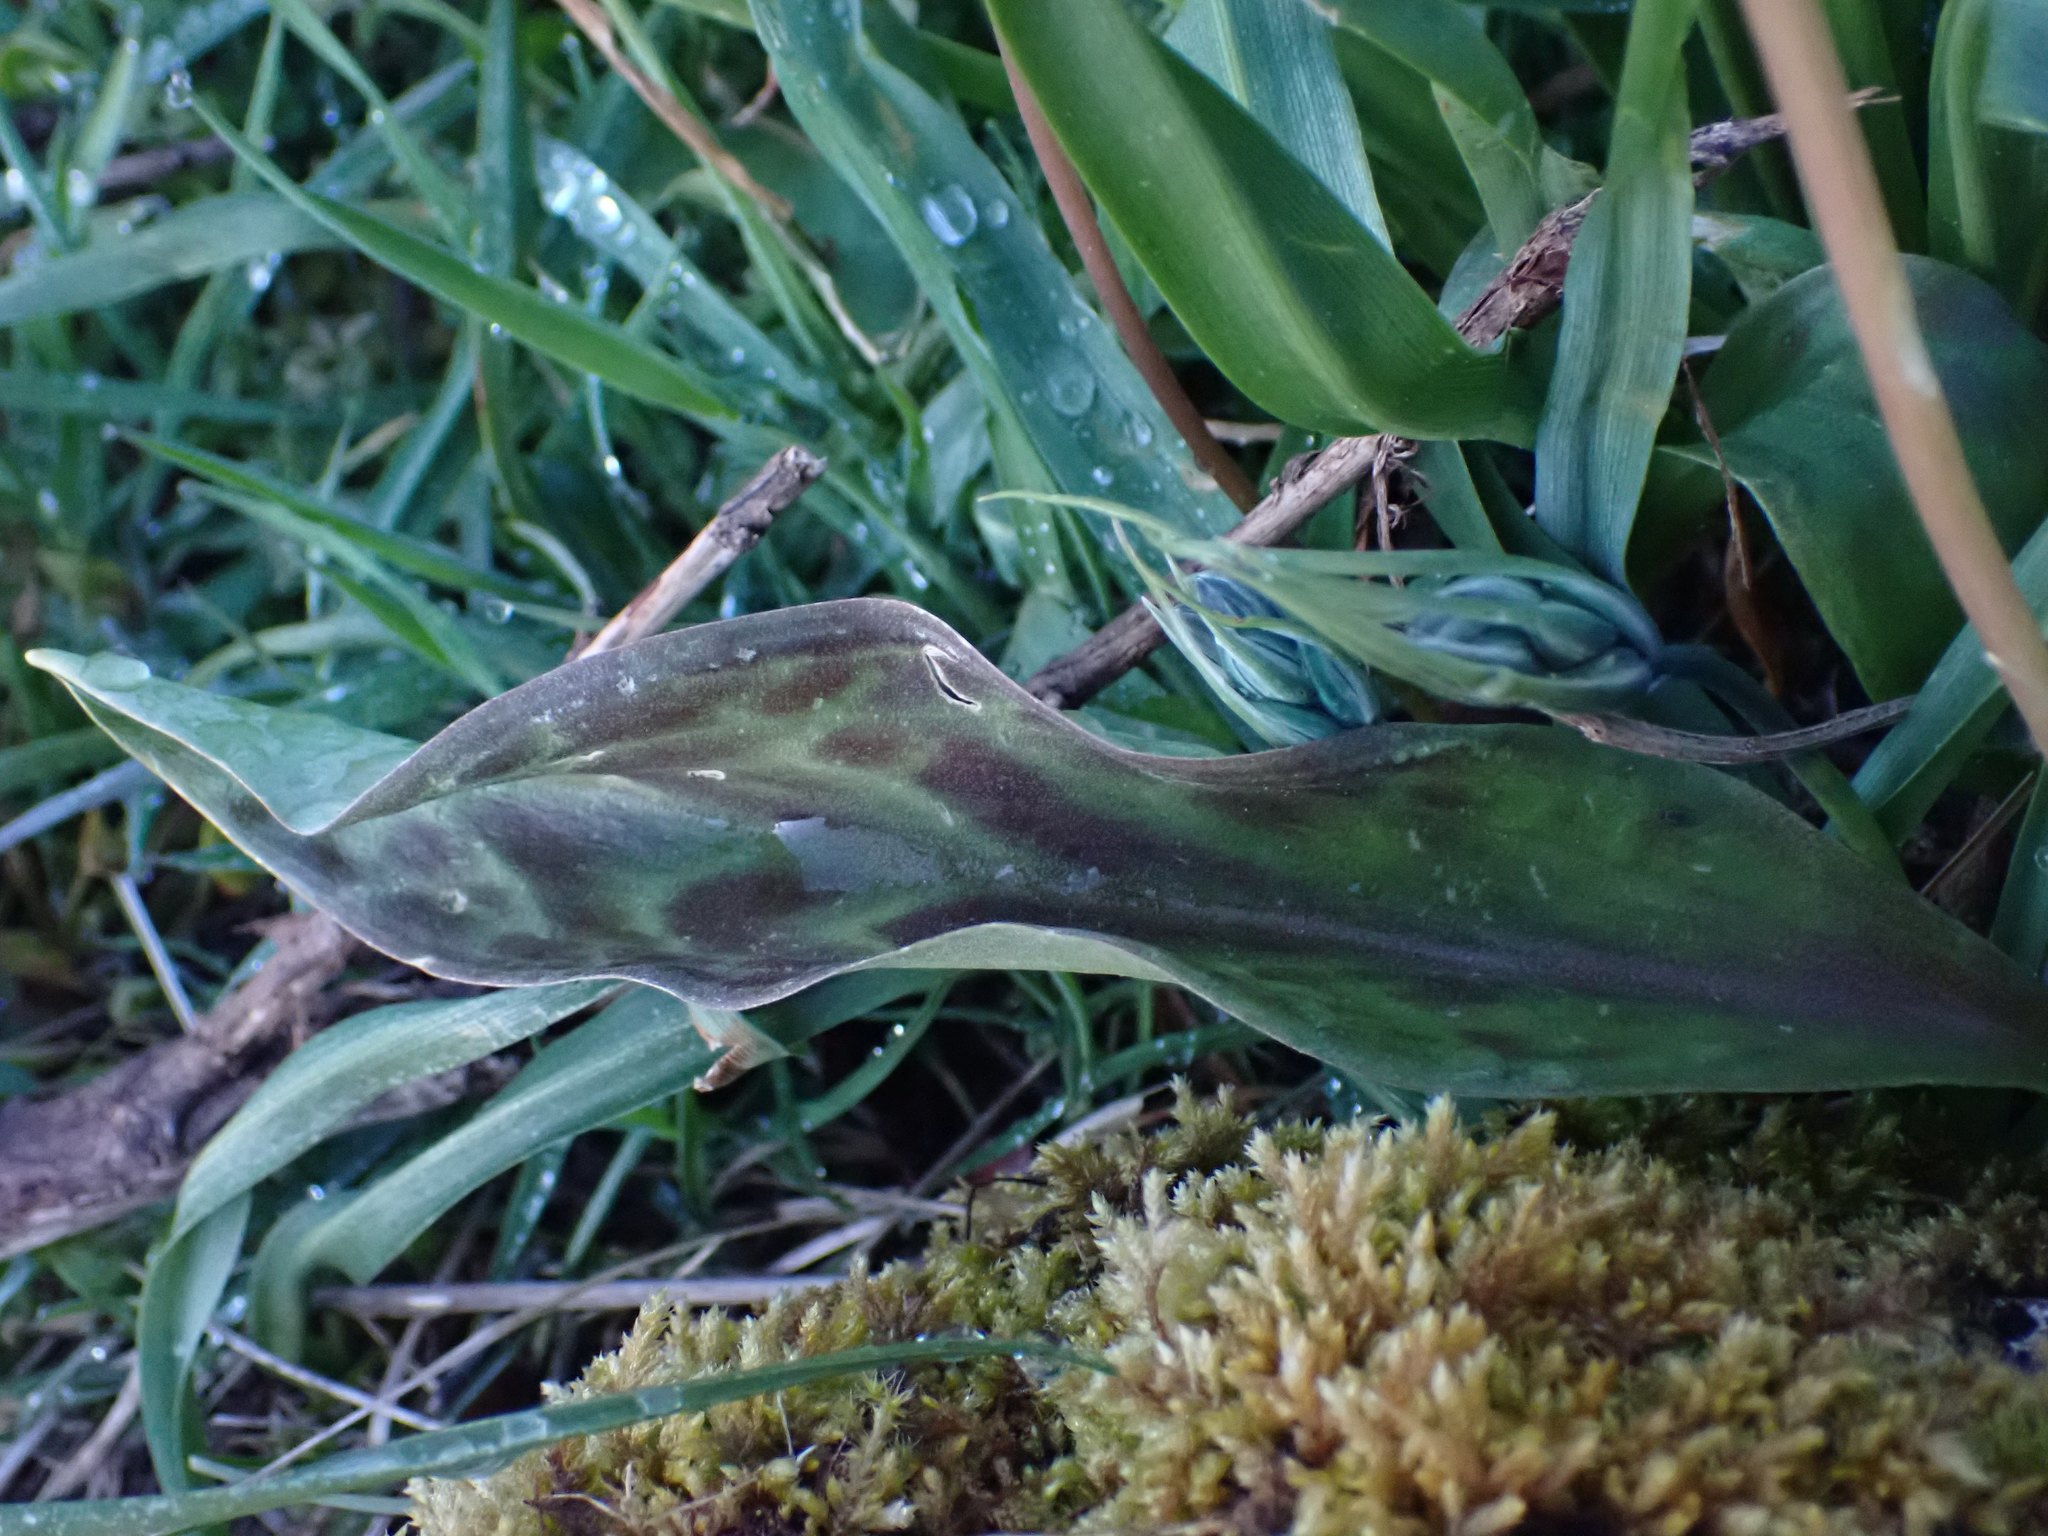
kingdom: Plantae
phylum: Tracheophyta
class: Liliopsida
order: Liliales
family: Liliaceae
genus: Erythronium
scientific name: Erythronium oregonum
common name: Giant adder's-tongue
